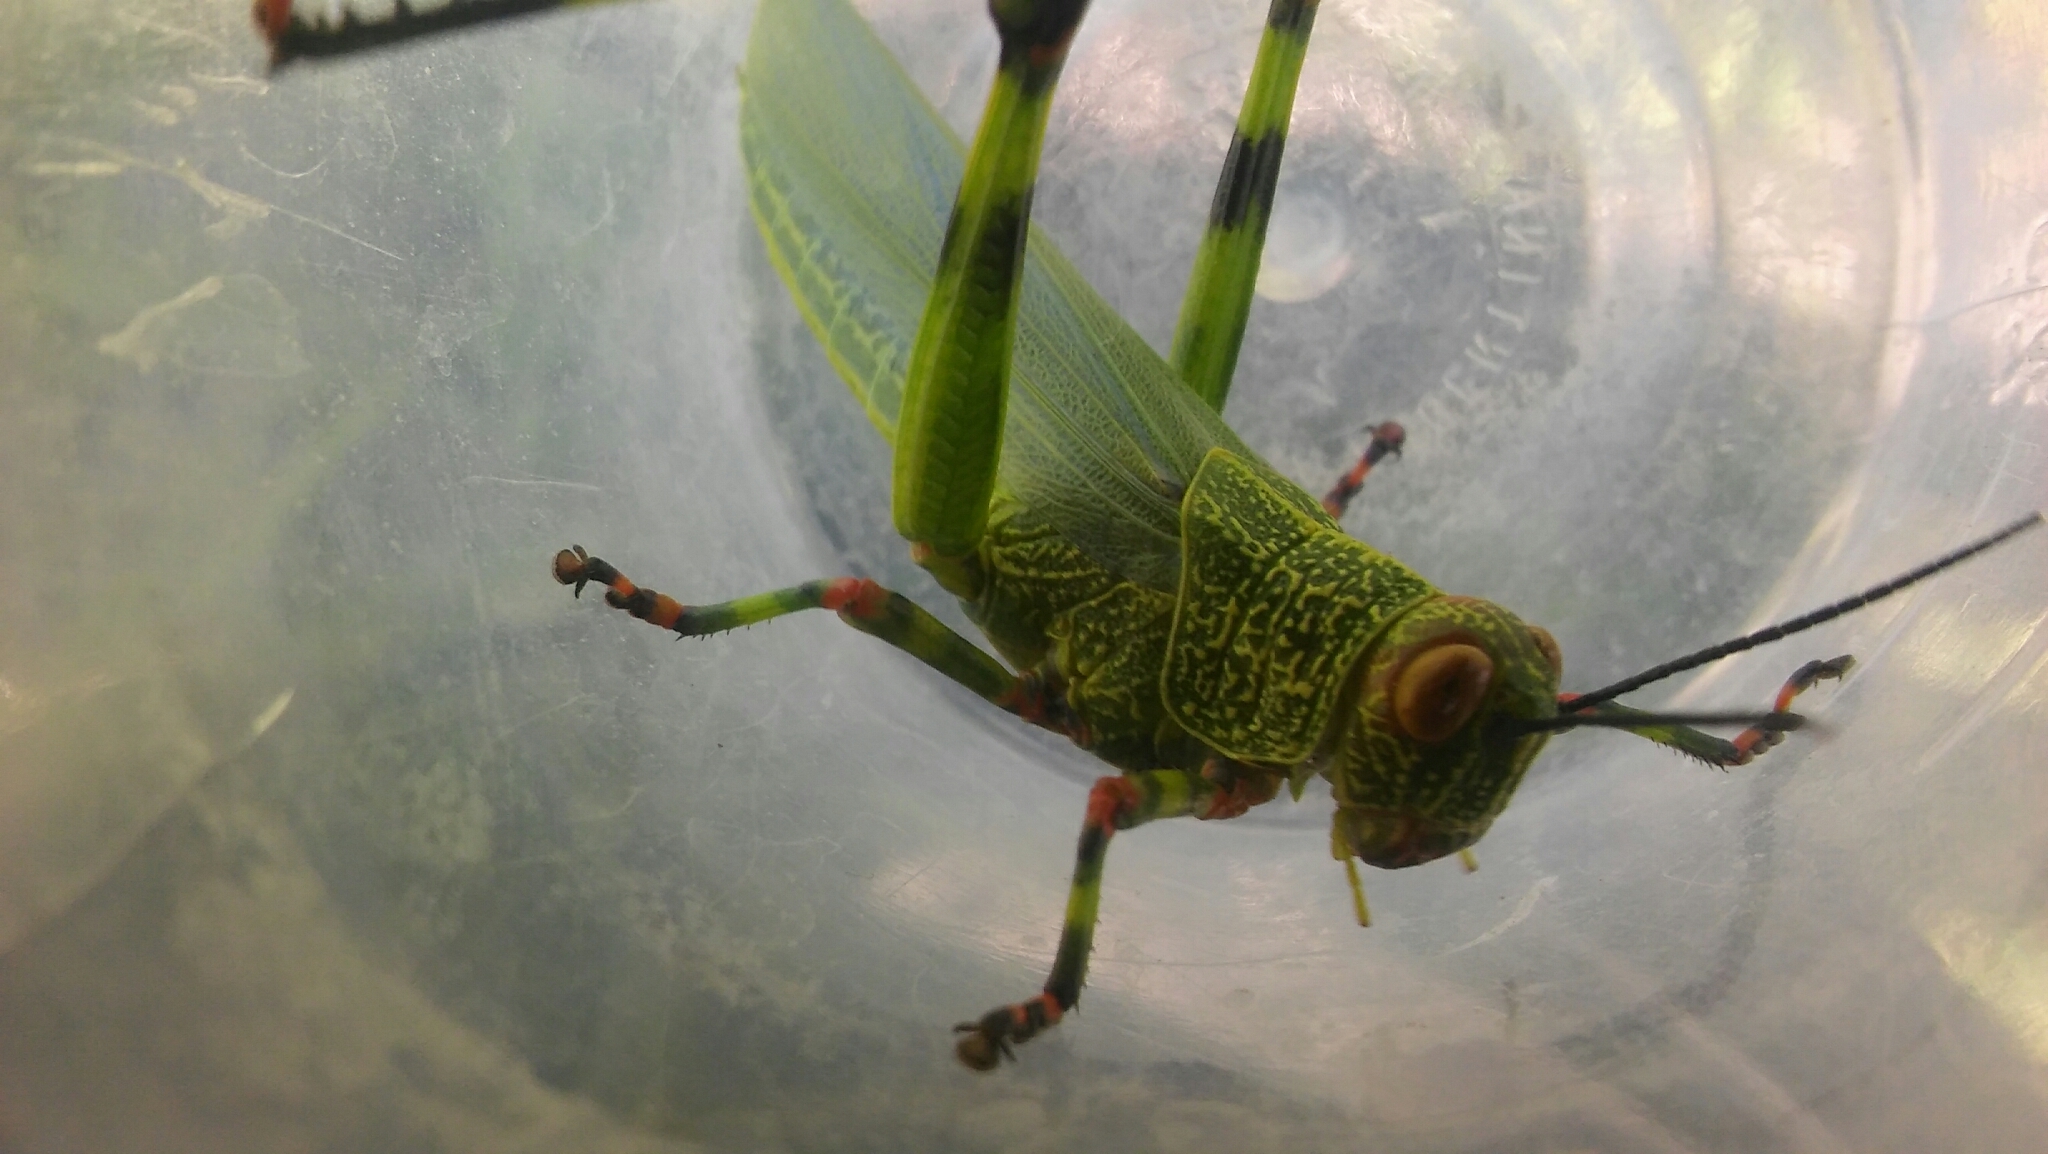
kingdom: Animalia
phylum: Arthropoda
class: Insecta
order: Orthoptera
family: Romaleidae
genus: Zoniopoda
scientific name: Zoniopoda tarsata
